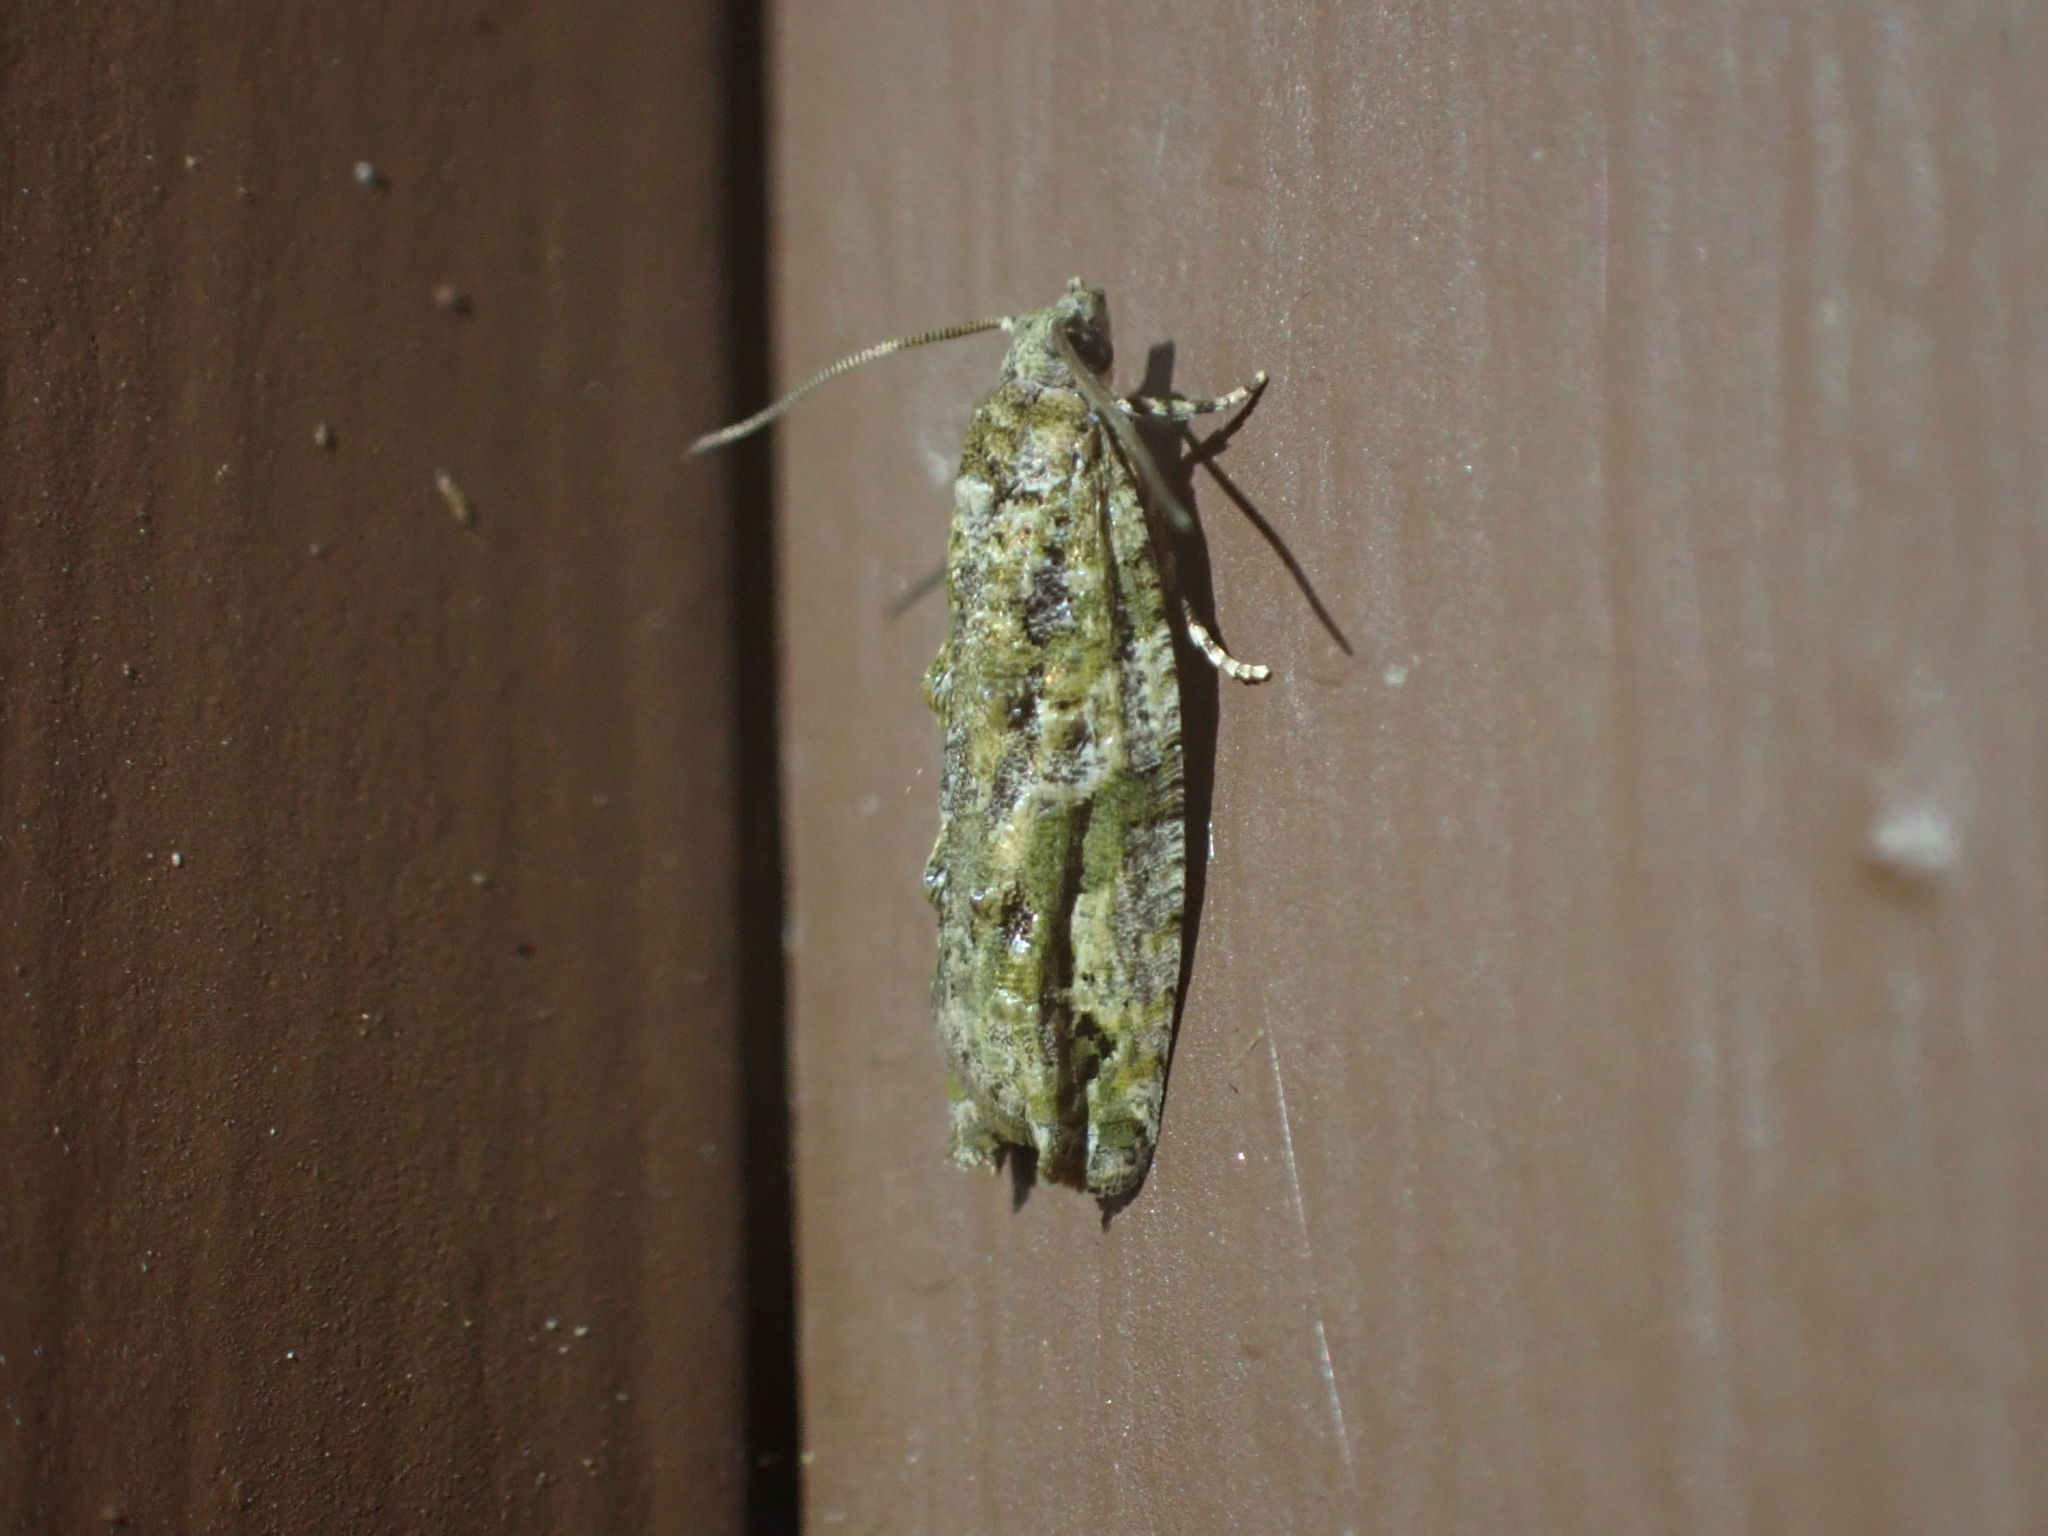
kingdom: Animalia
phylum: Arthropoda
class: Insecta
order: Lepidoptera
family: Tortricidae
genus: Proteoteras
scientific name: Proteoteras aesculana
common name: Maple twig borer moth
